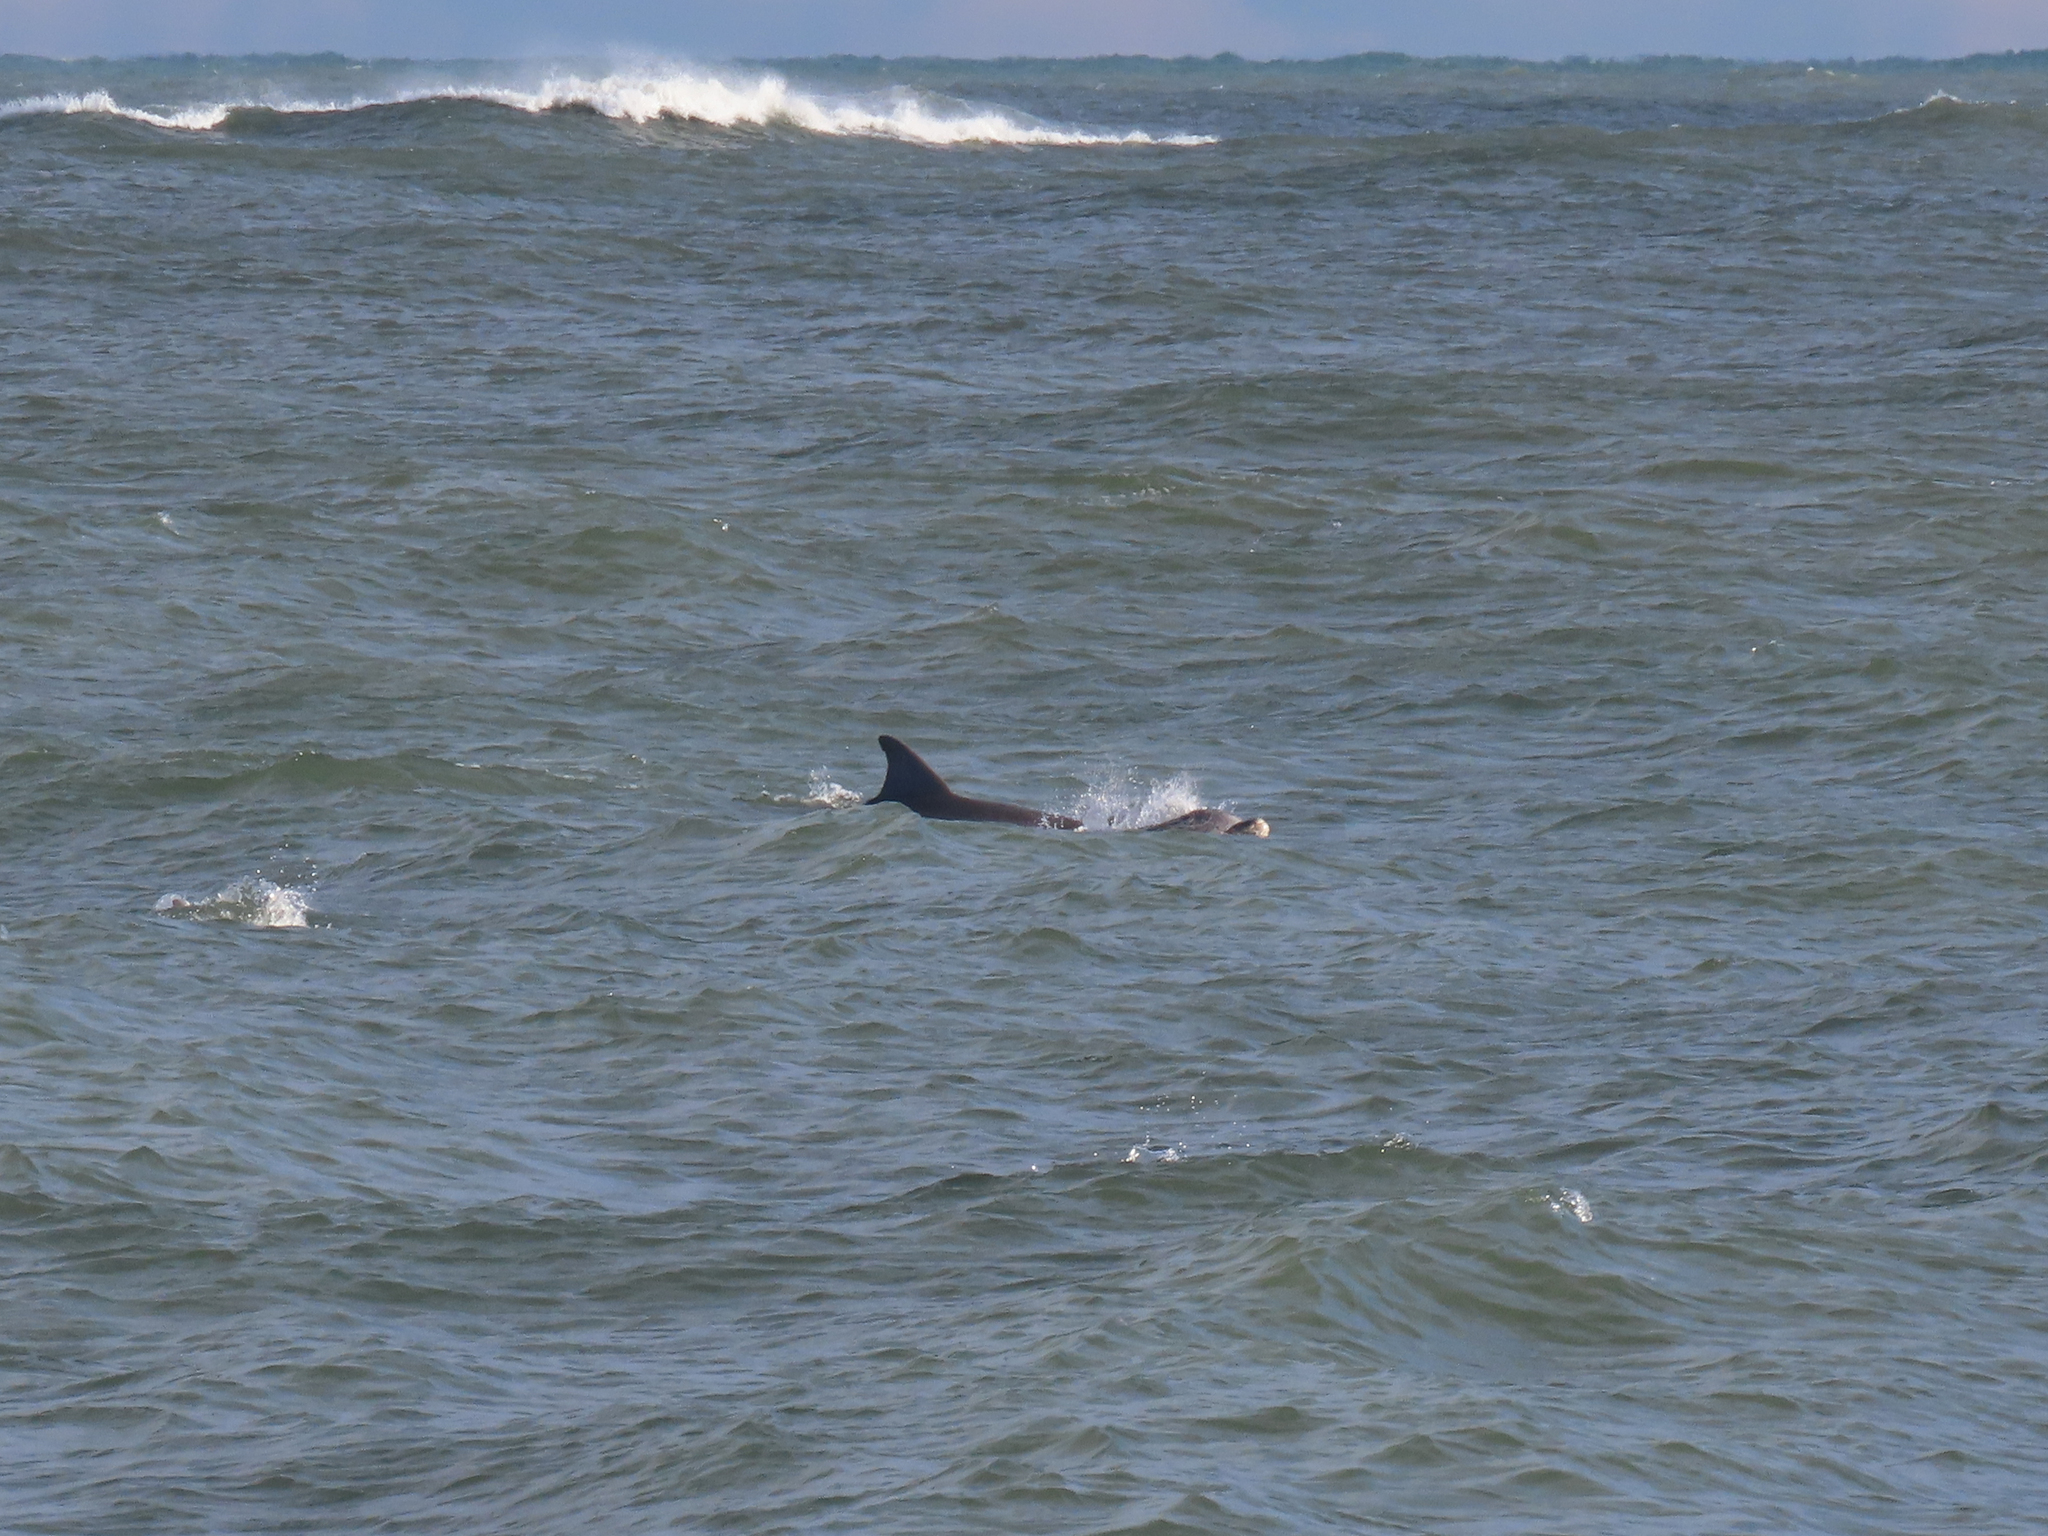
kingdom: Animalia
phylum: Chordata
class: Mammalia
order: Cetacea
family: Delphinidae
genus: Tursiops
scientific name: Tursiops truncatus
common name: Bottlenose dolphin
